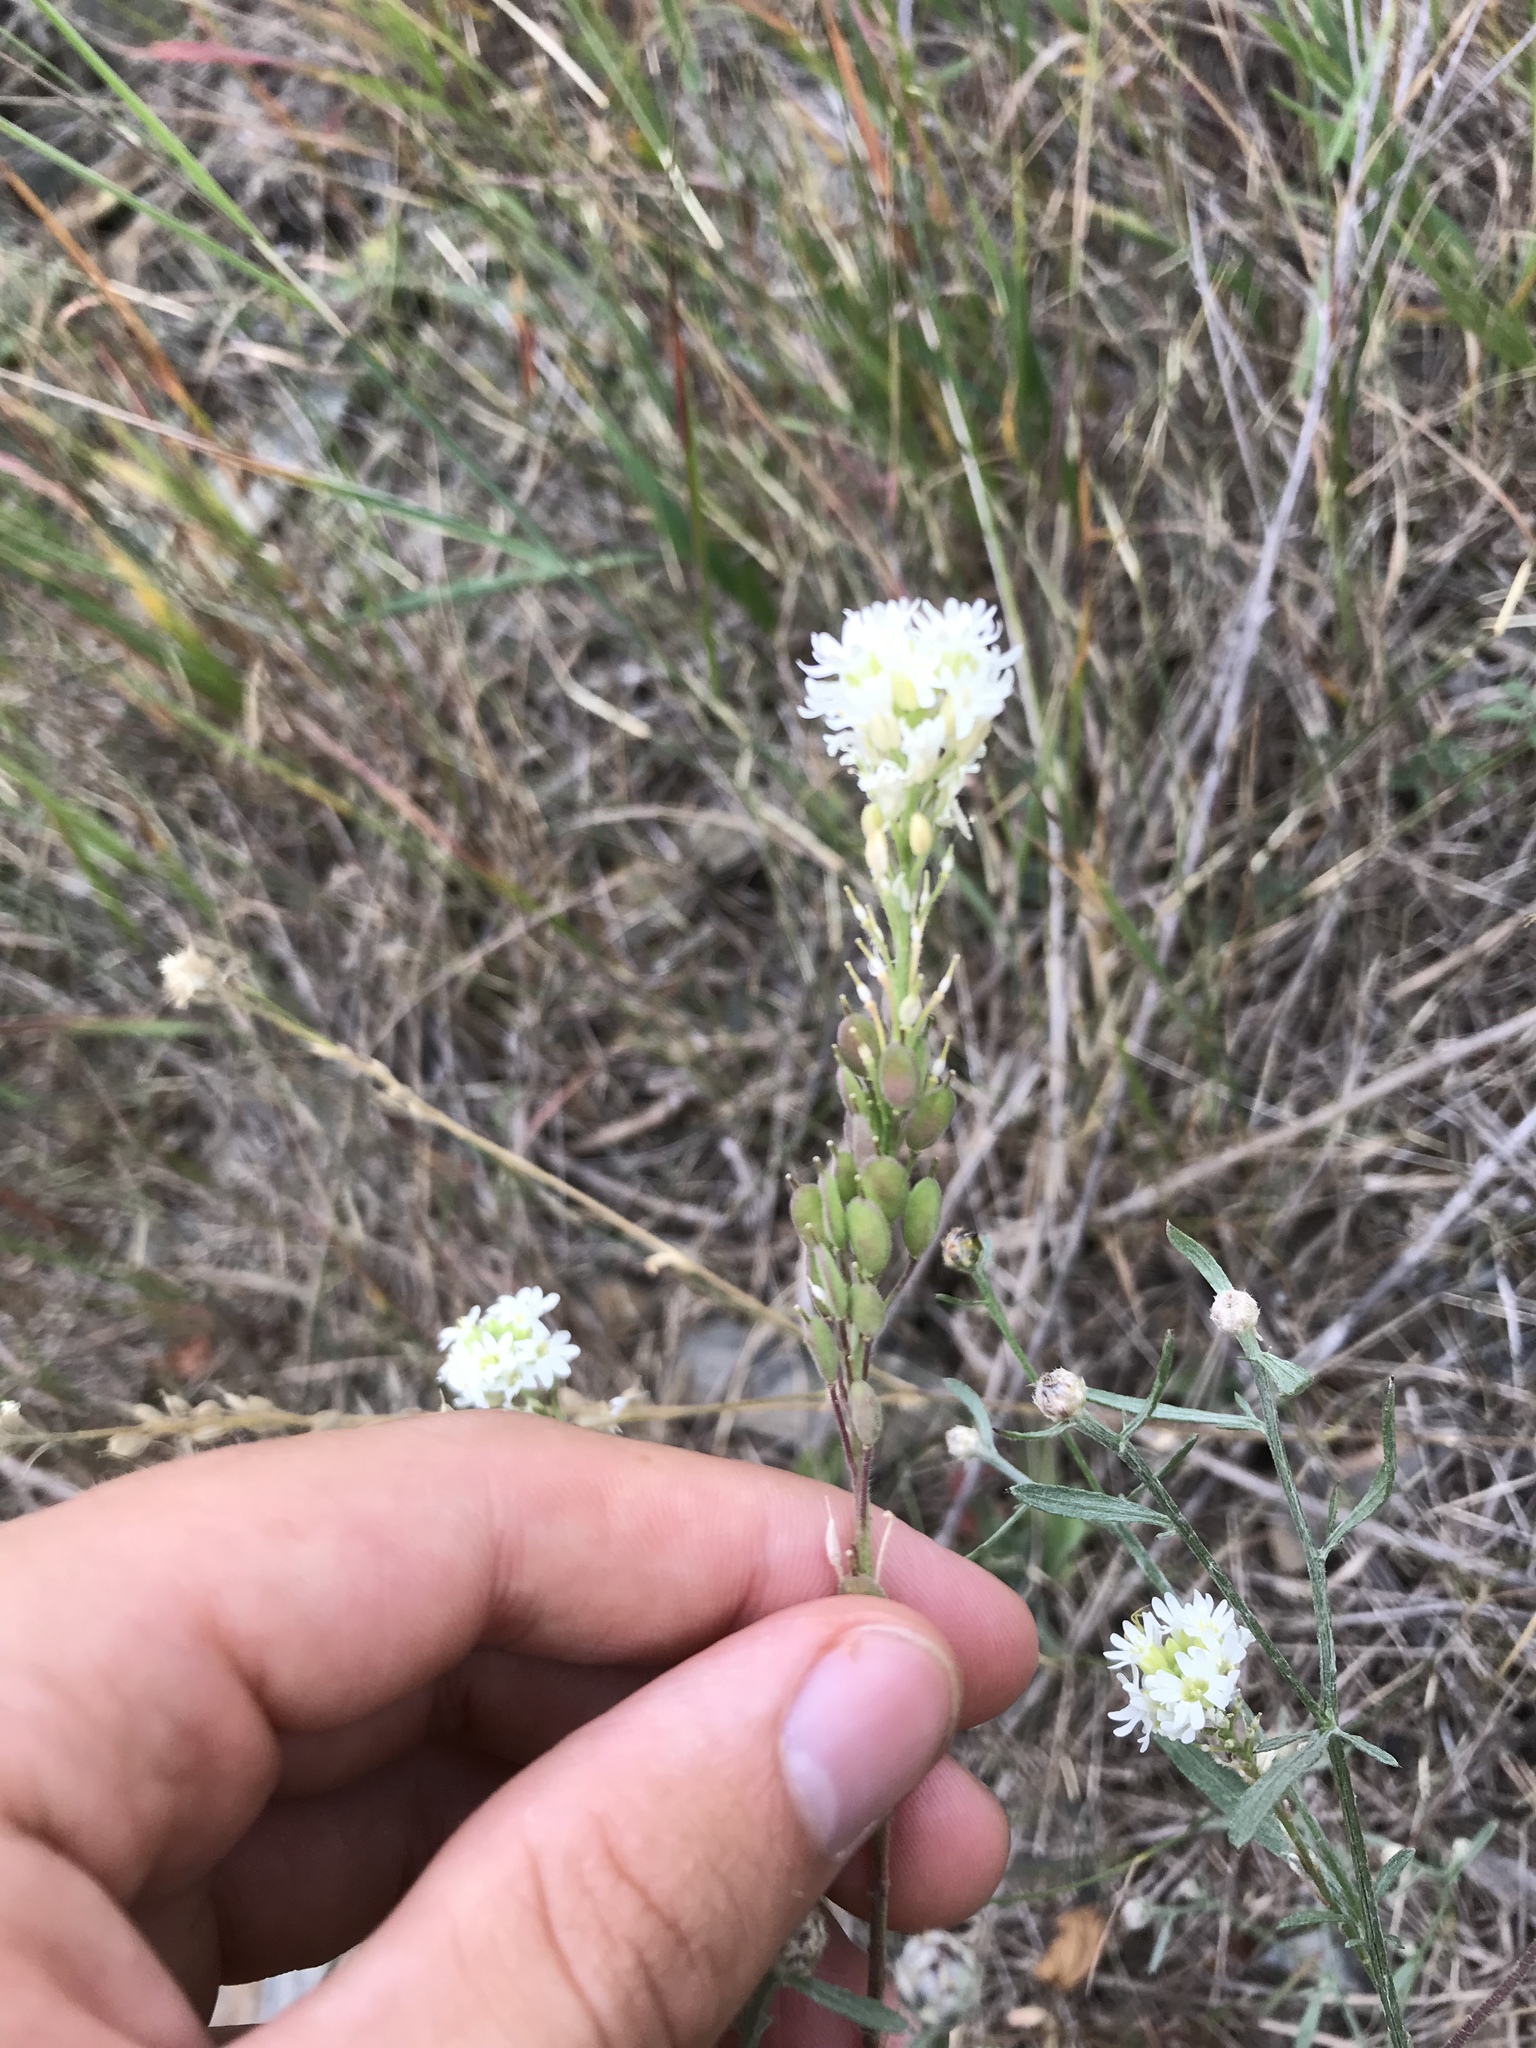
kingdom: Plantae
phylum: Tracheophyta
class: Magnoliopsida
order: Brassicales
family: Brassicaceae
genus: Berteroa
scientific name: Berteroa incana
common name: Hoary alison
